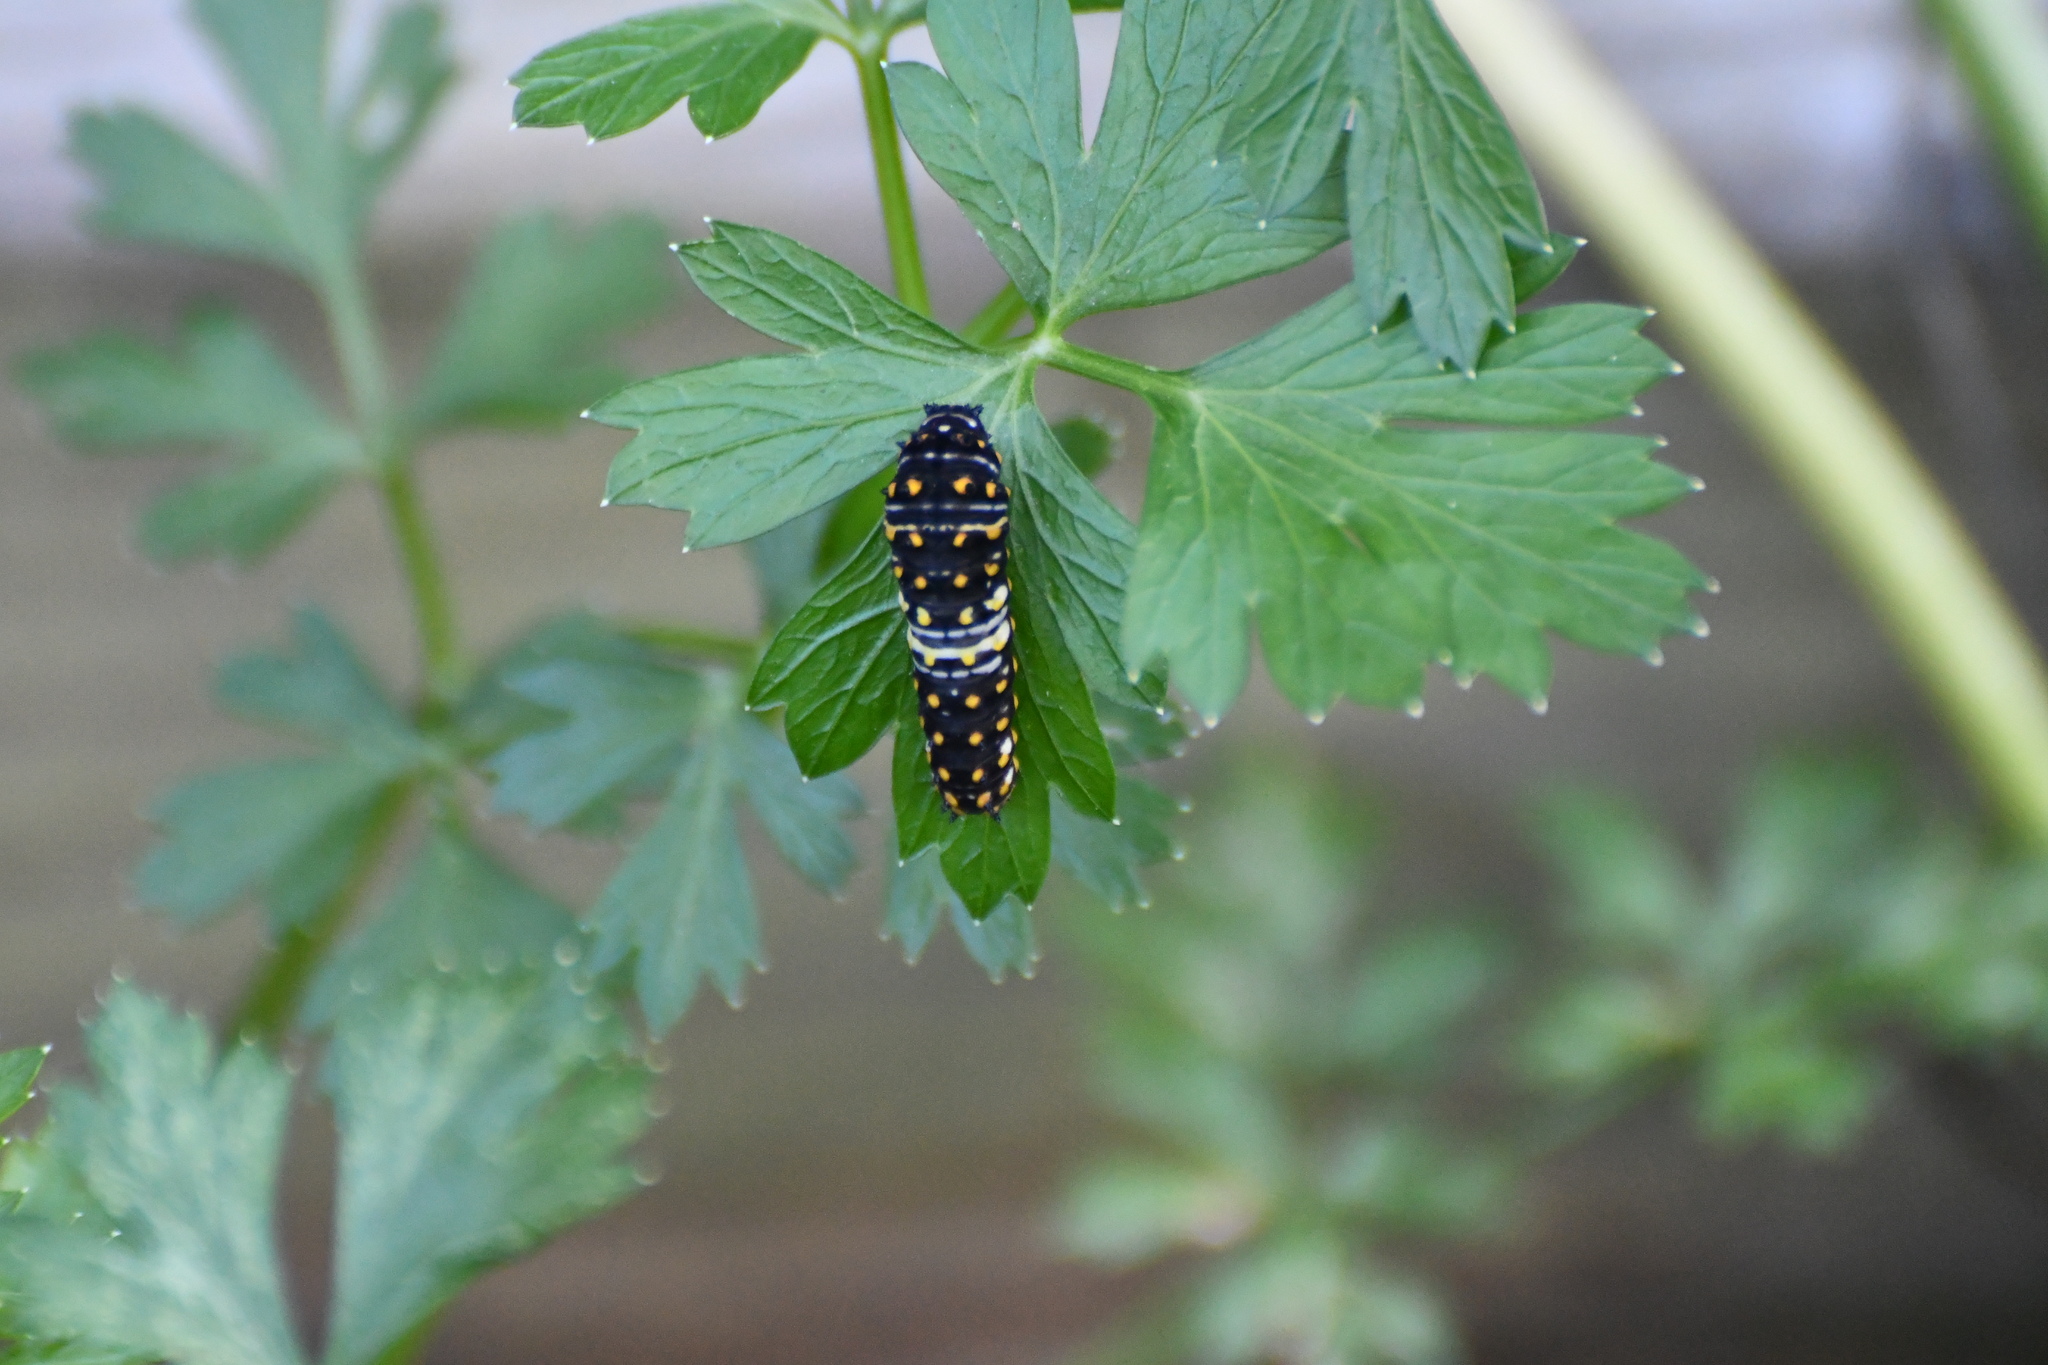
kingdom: Animalia
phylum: Arthropoda
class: Insecta
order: Lepidoptera
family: Papilionidae
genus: Papilio
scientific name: Papilio polyxenes
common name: Black swallowtail
